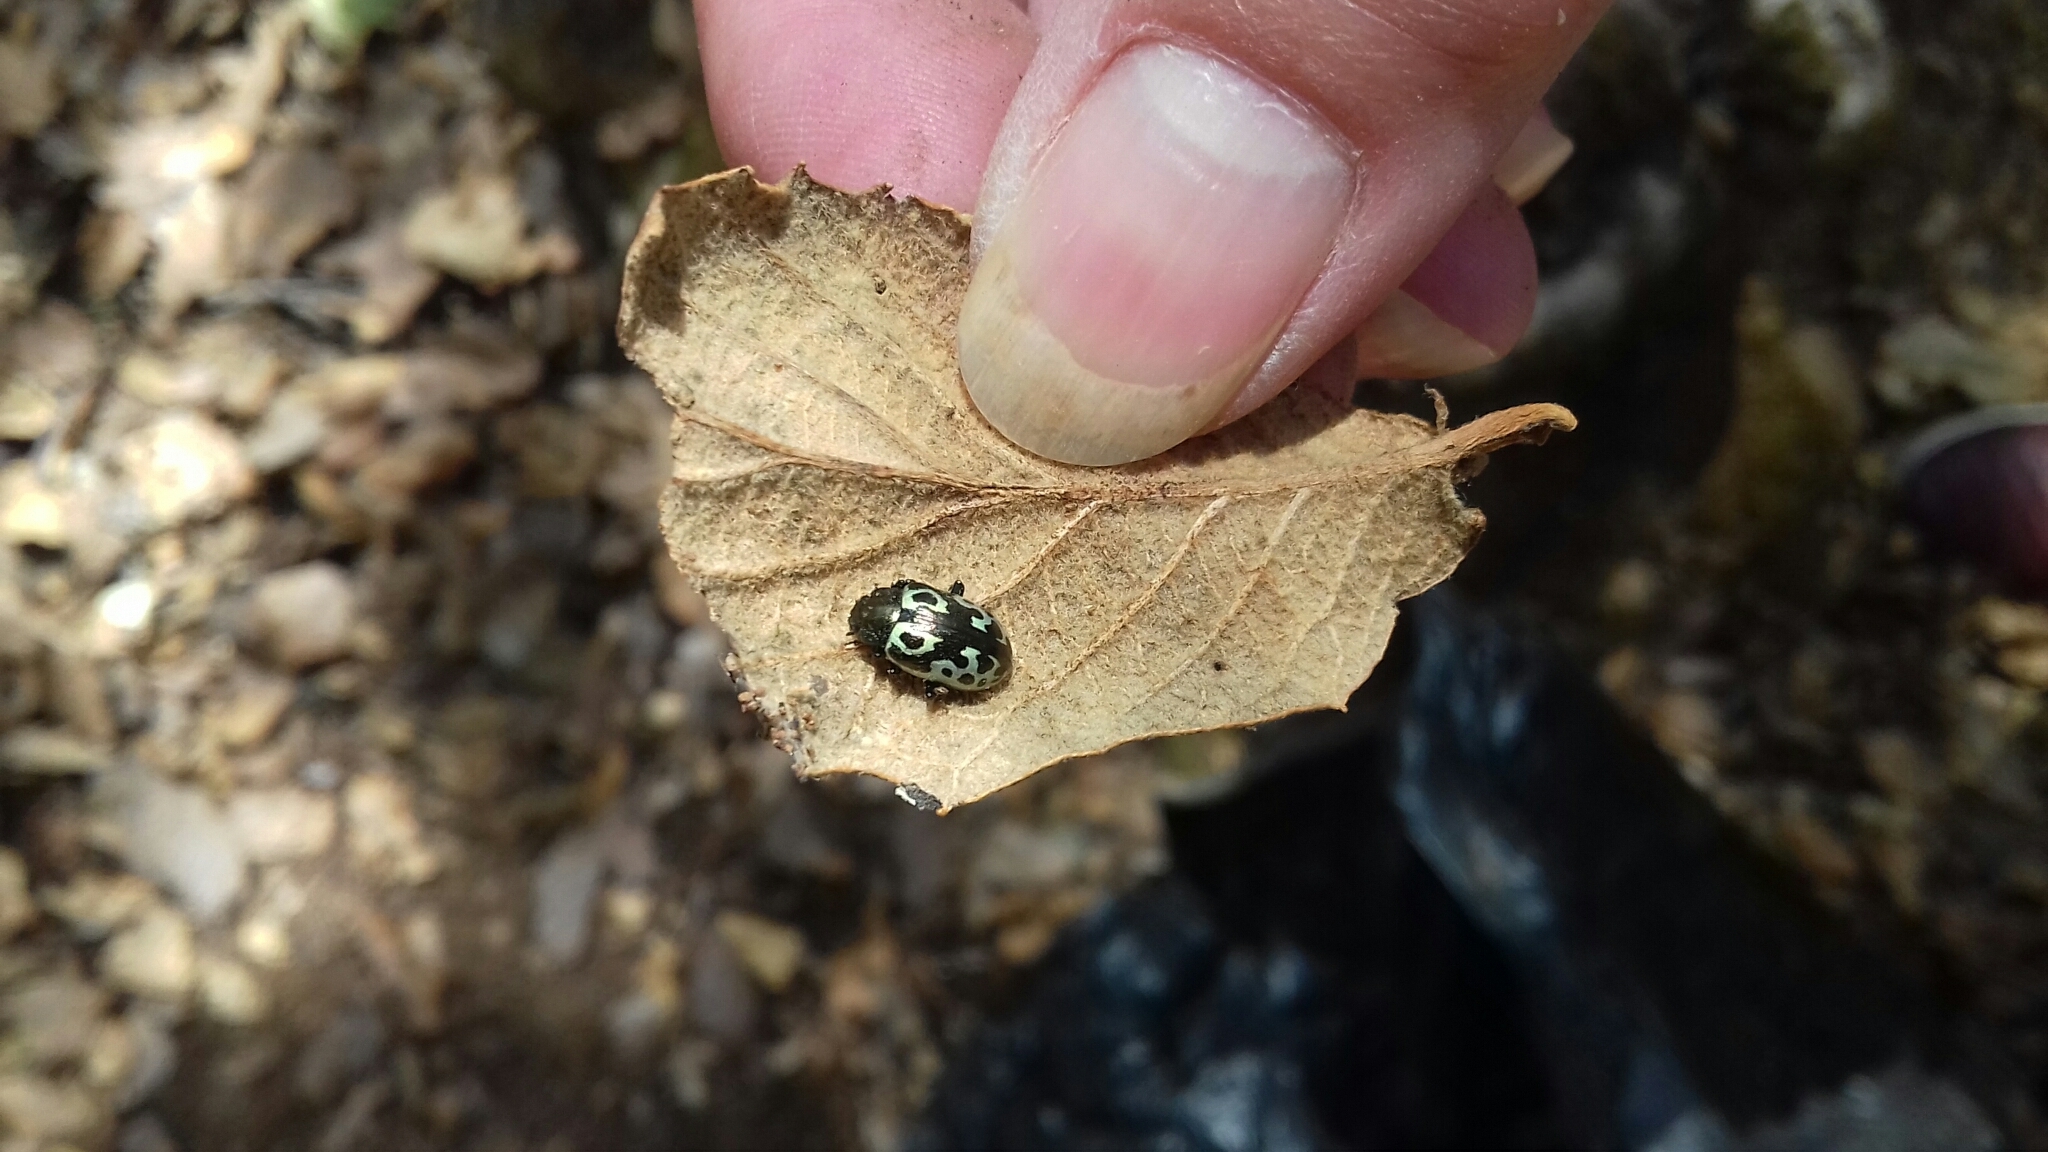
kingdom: Animalia
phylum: Arthropoda
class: Insecta
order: Coleoptera
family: Chrysomelidae
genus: Calligrapha
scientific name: Calligrapha
